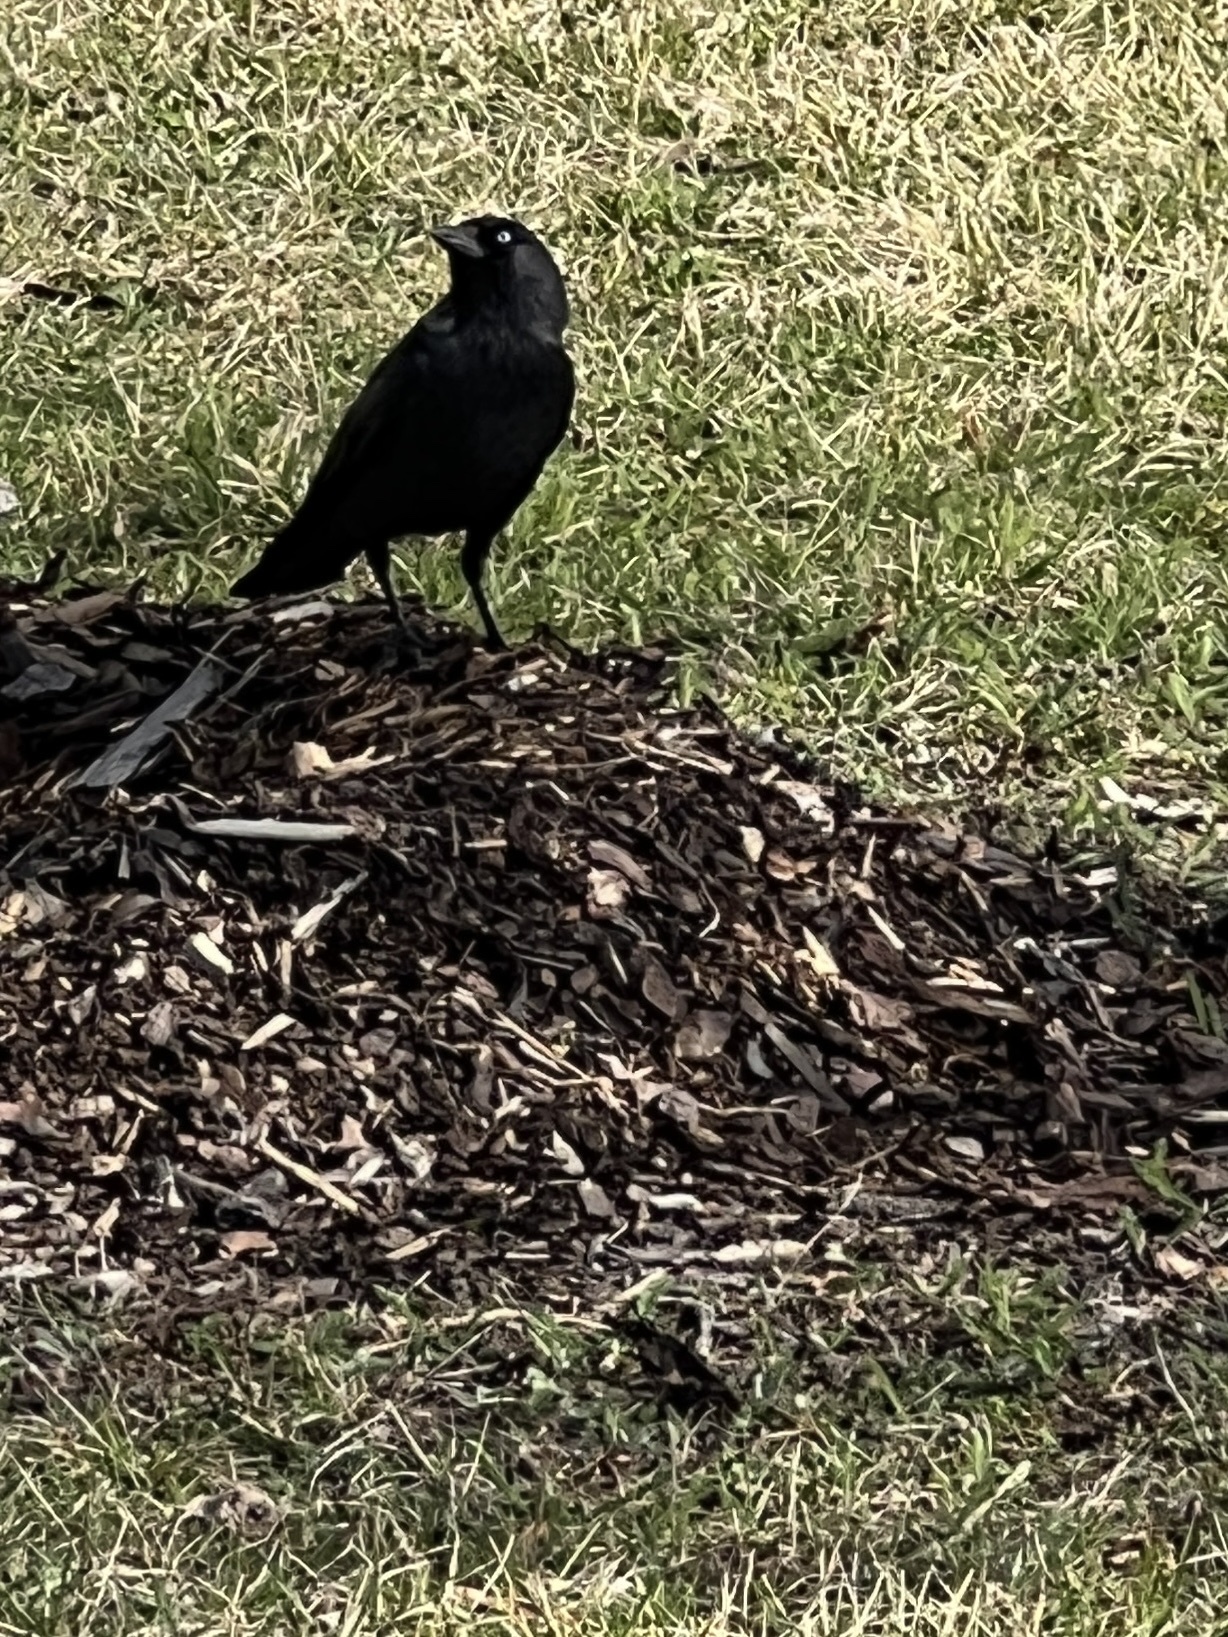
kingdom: Animalia
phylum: Chordata
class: Aves
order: Passeriformes
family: Corvidae
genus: Coloeus
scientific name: Coloeus monedula
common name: Western jackdaw
